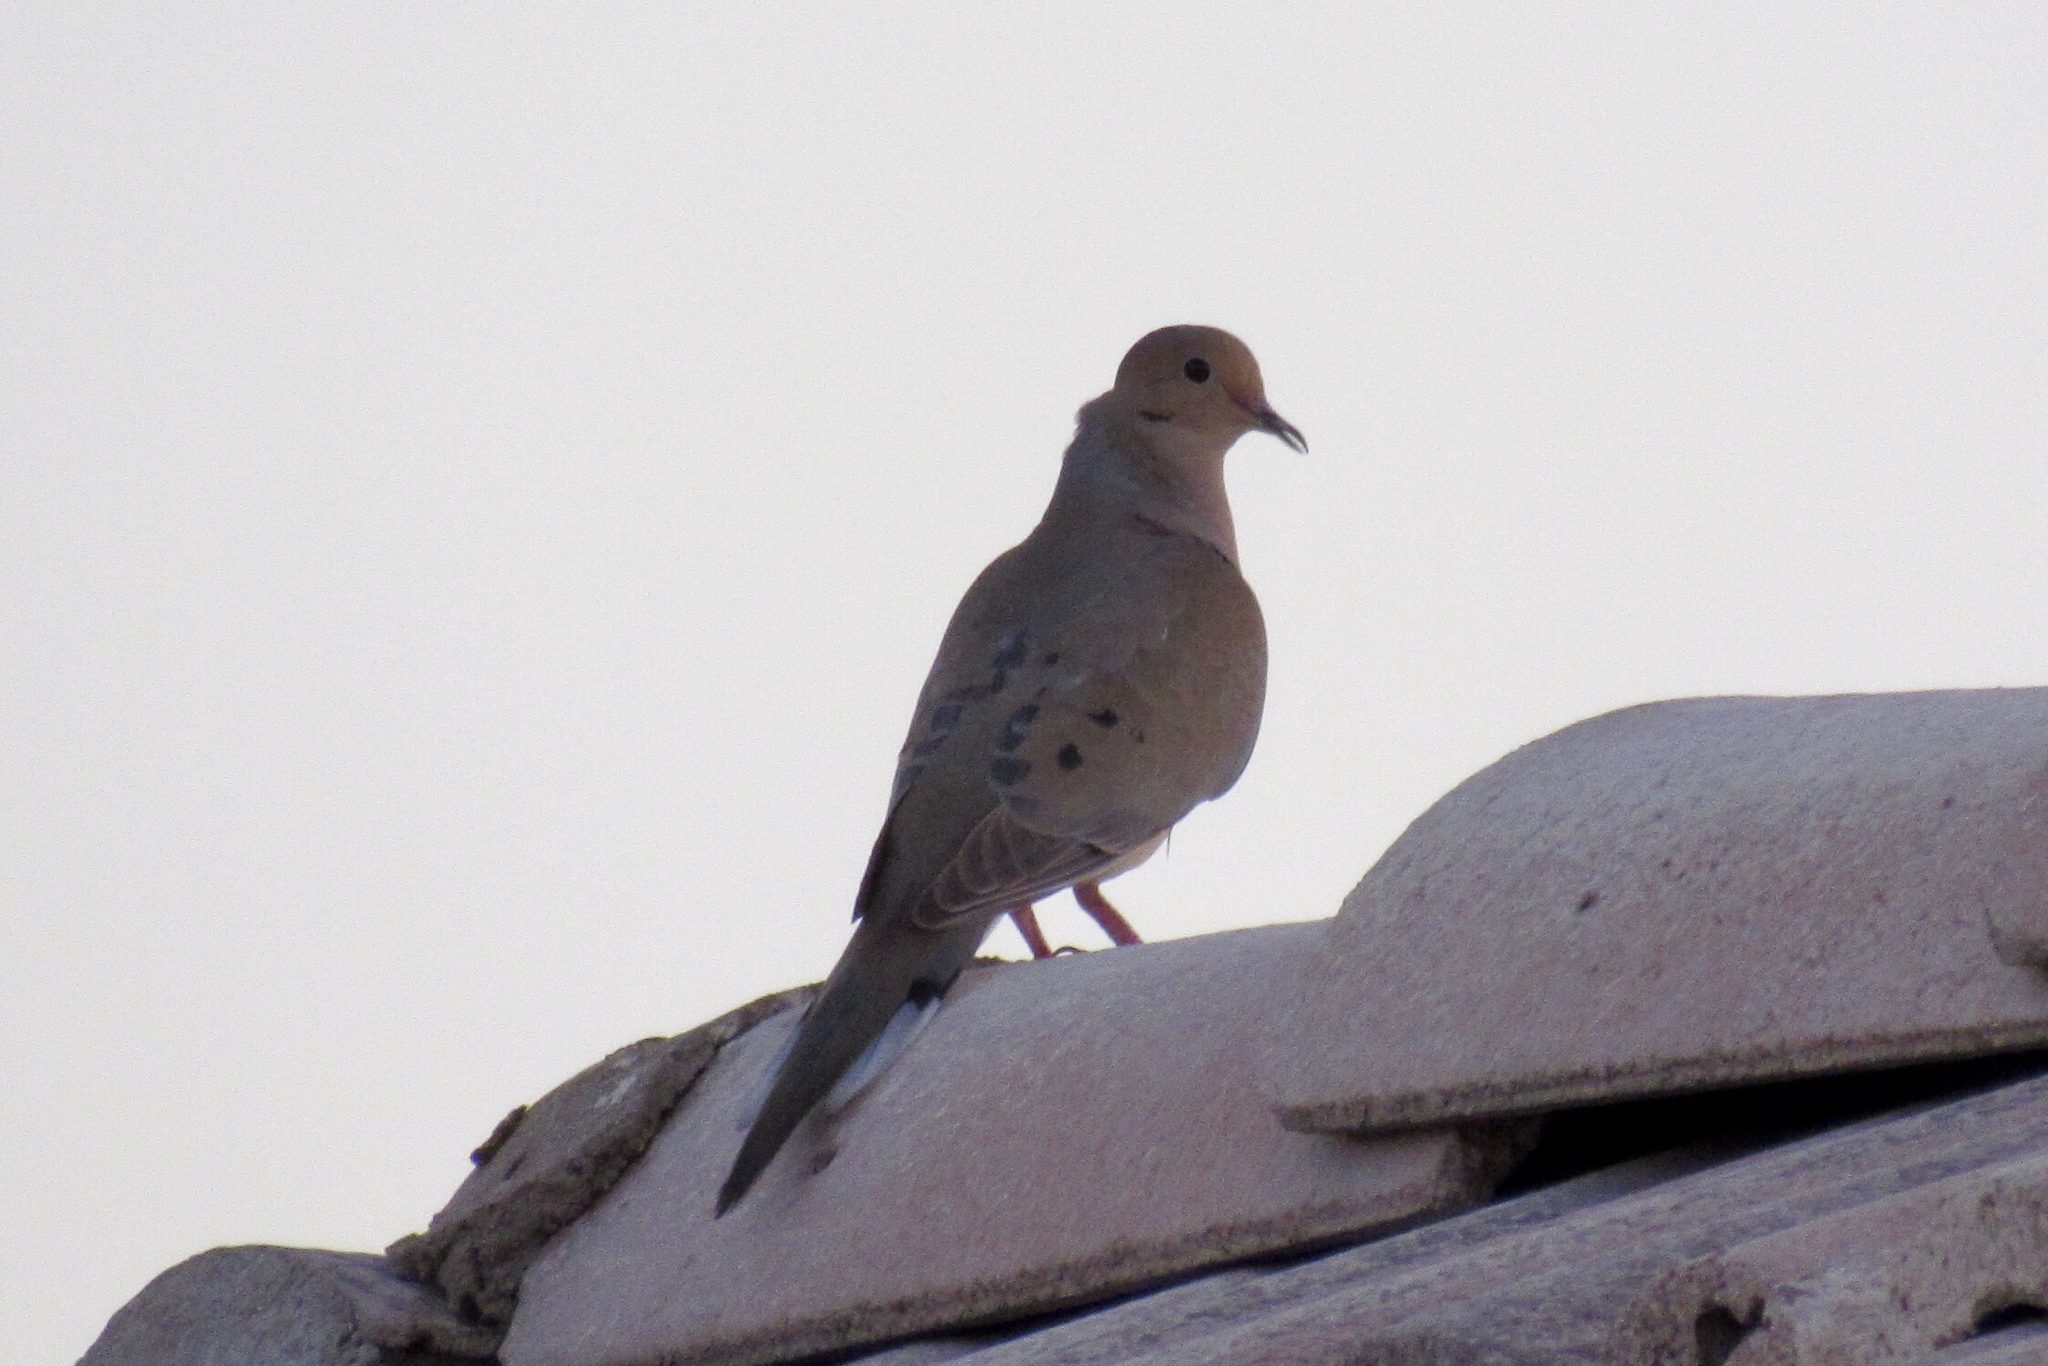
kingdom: Animalia
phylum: Chordata
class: Aves
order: Columbiformes
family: Columbidae
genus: Zenaida
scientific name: Zenaida macroura
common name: Mourning dove
